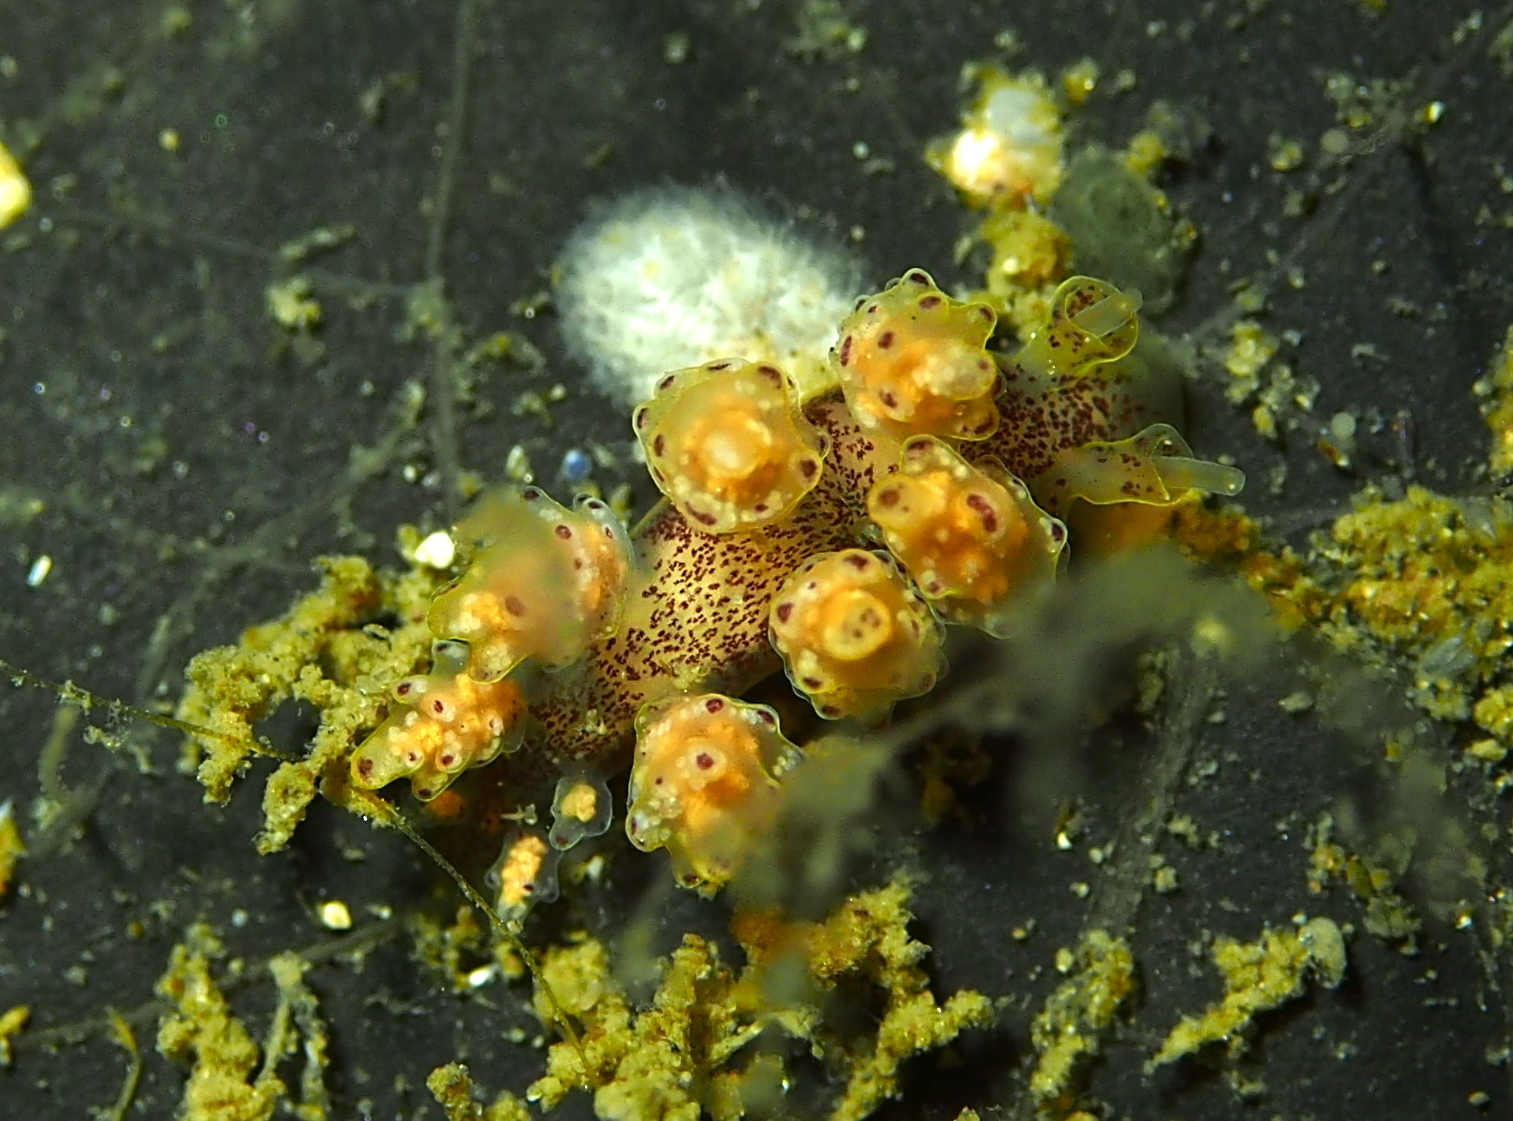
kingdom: Animalia
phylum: Mollusca
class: Gastropoda
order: Nudibranchia
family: Dotidae
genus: Doto
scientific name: Doto maculata
